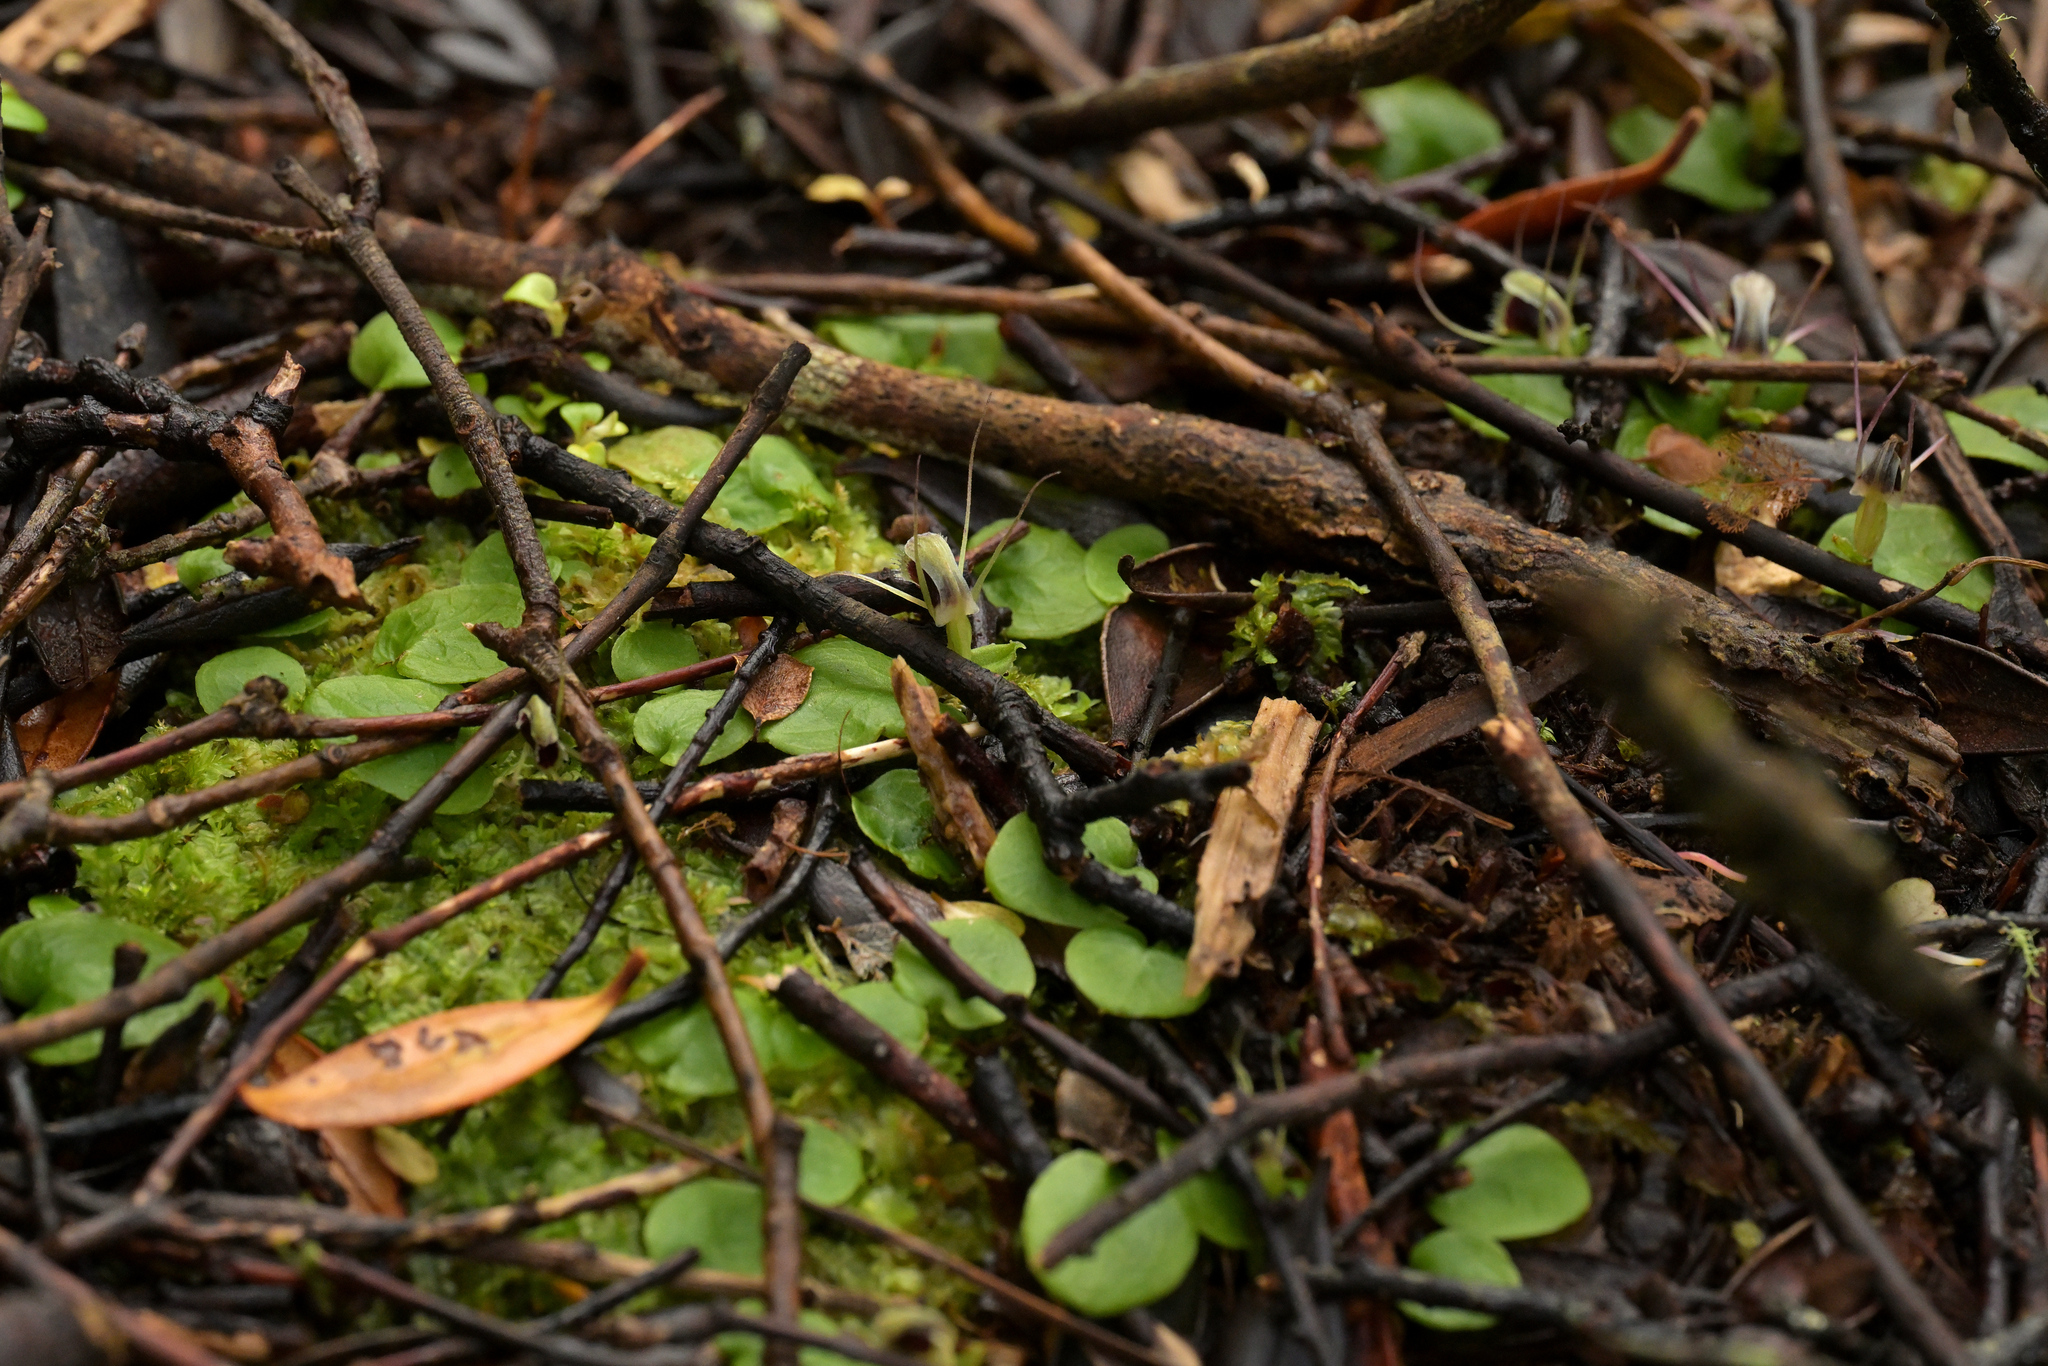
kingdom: Plantae
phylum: Tracheophyta
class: Liliopsida
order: Asparagales
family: Orchidaceae
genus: Corybas
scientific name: Corybas oblongus
